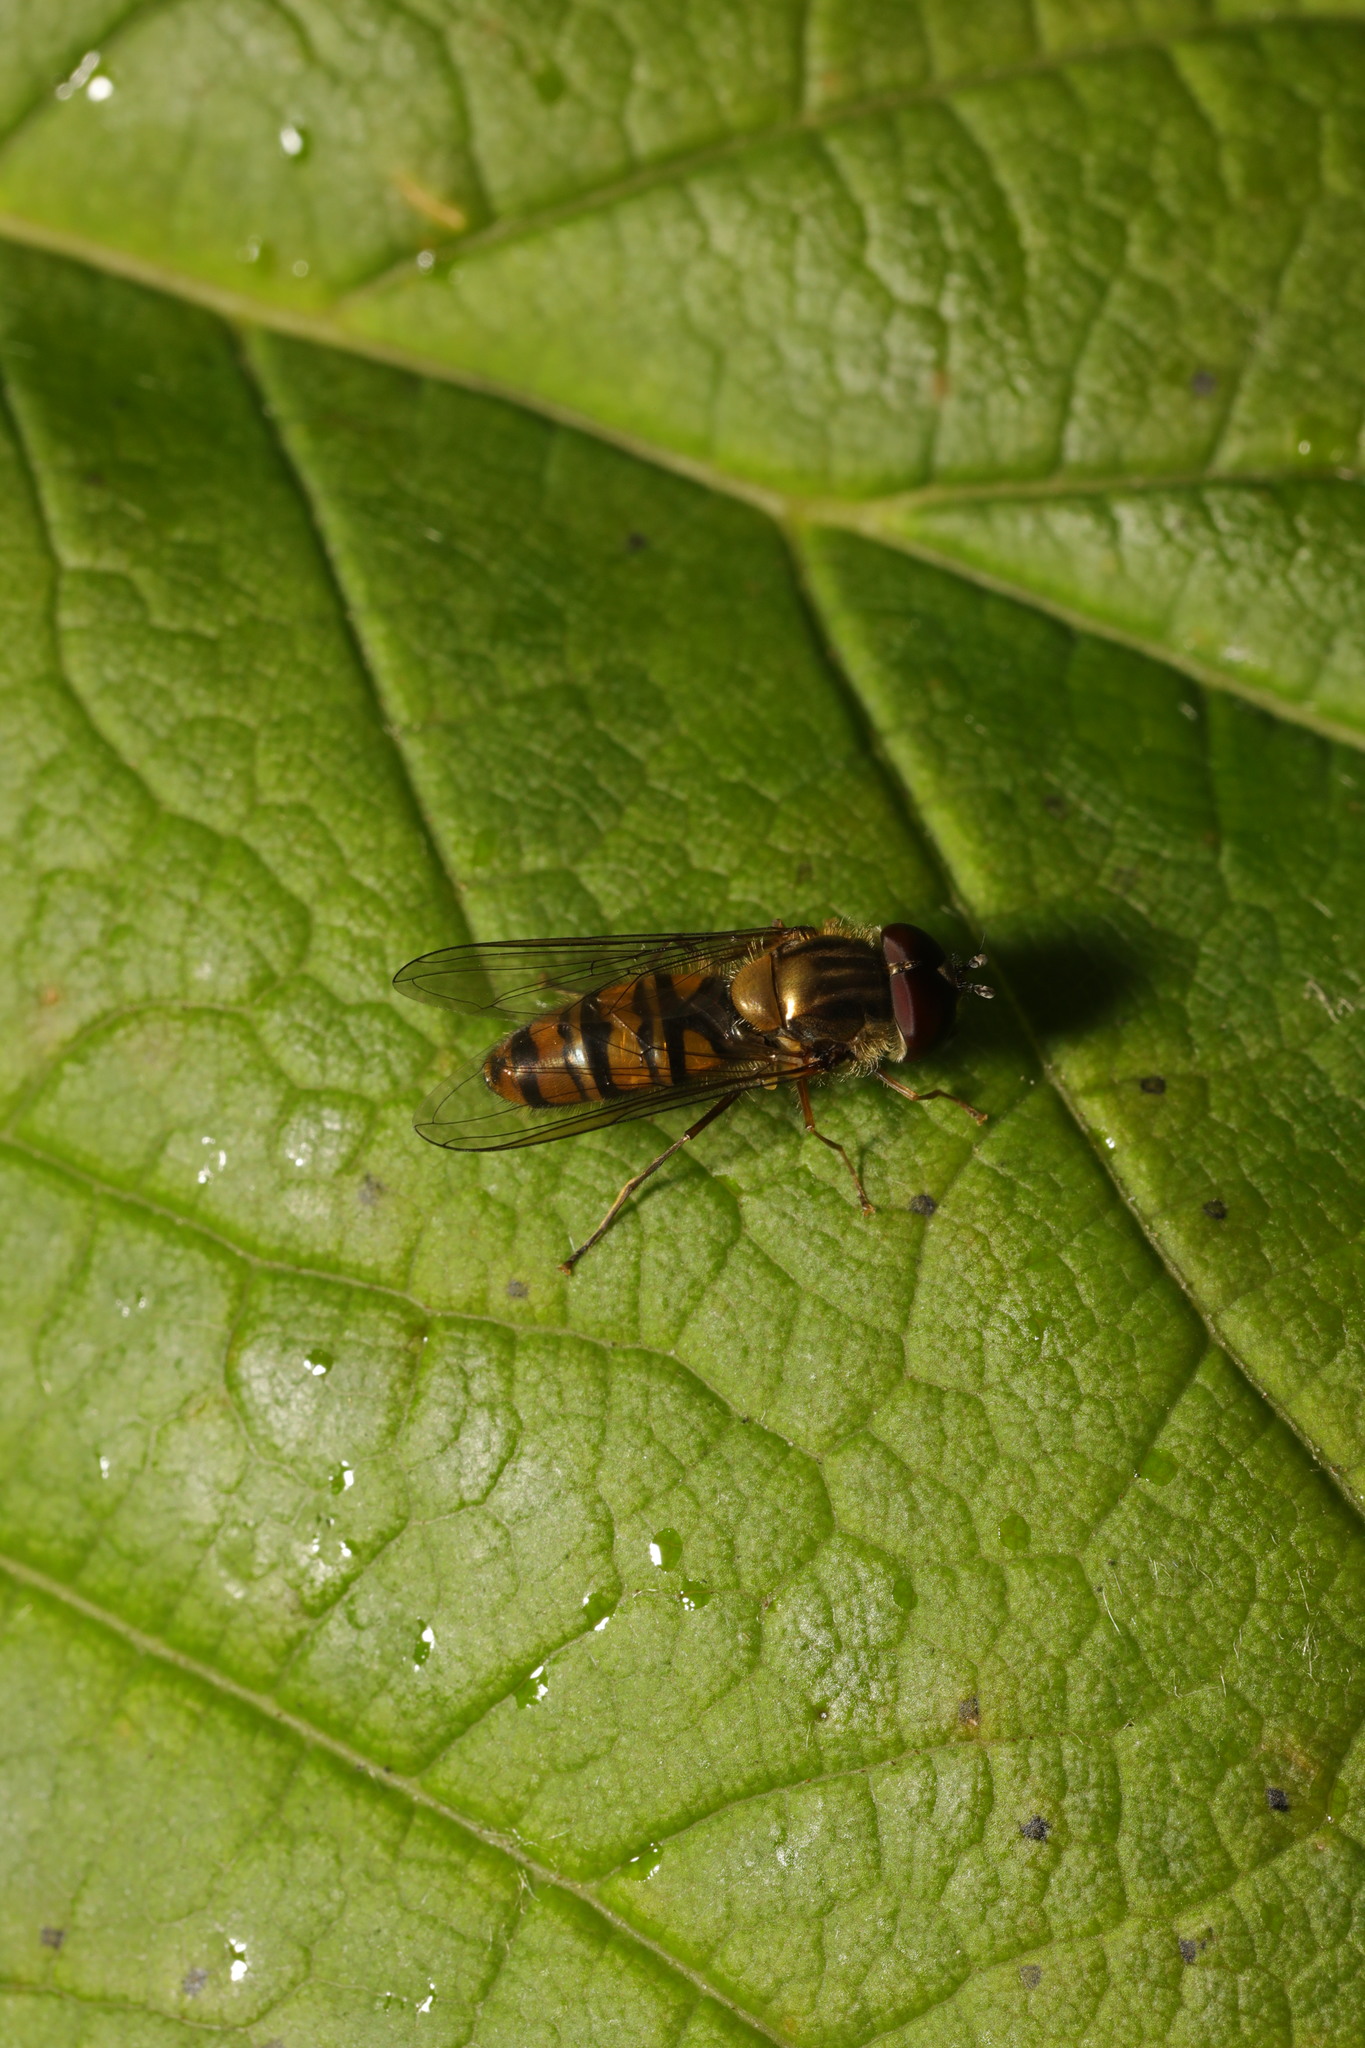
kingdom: Animalia
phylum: Arthropoda
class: Insecta
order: Diptera
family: Syrphidae
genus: Episyrphus
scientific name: Episyrphus balteatus
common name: Marmalade hoverfly
